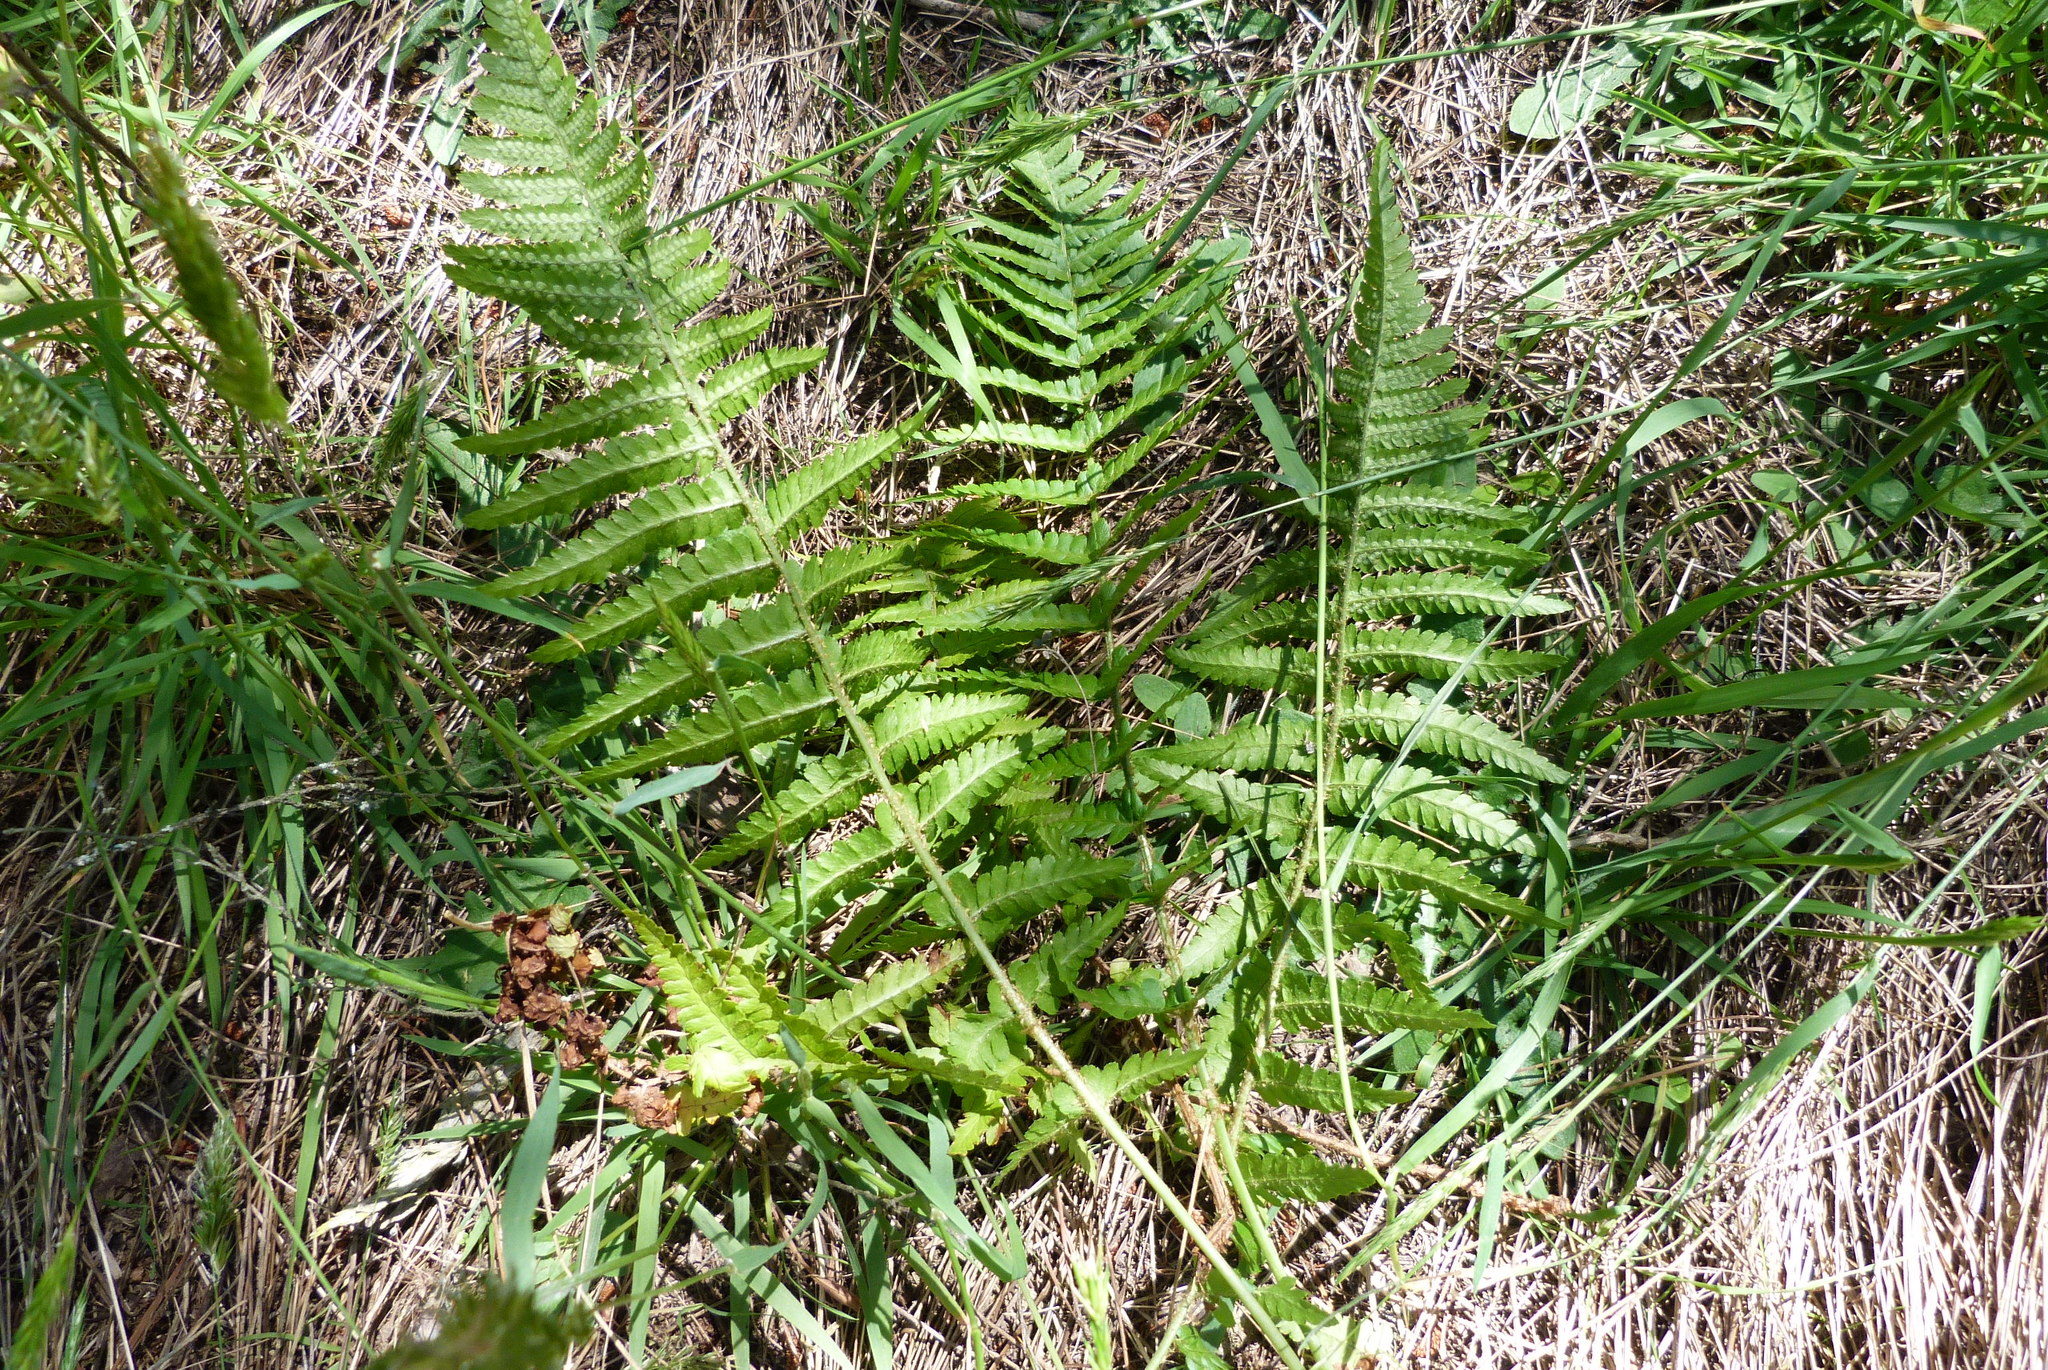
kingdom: Plantae
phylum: Tracheophyta
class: Polypodiopsida
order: Polypodiales
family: Dryopteridaceae
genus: Dryopteris
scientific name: Dryopteris filix-mas
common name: Male fern
